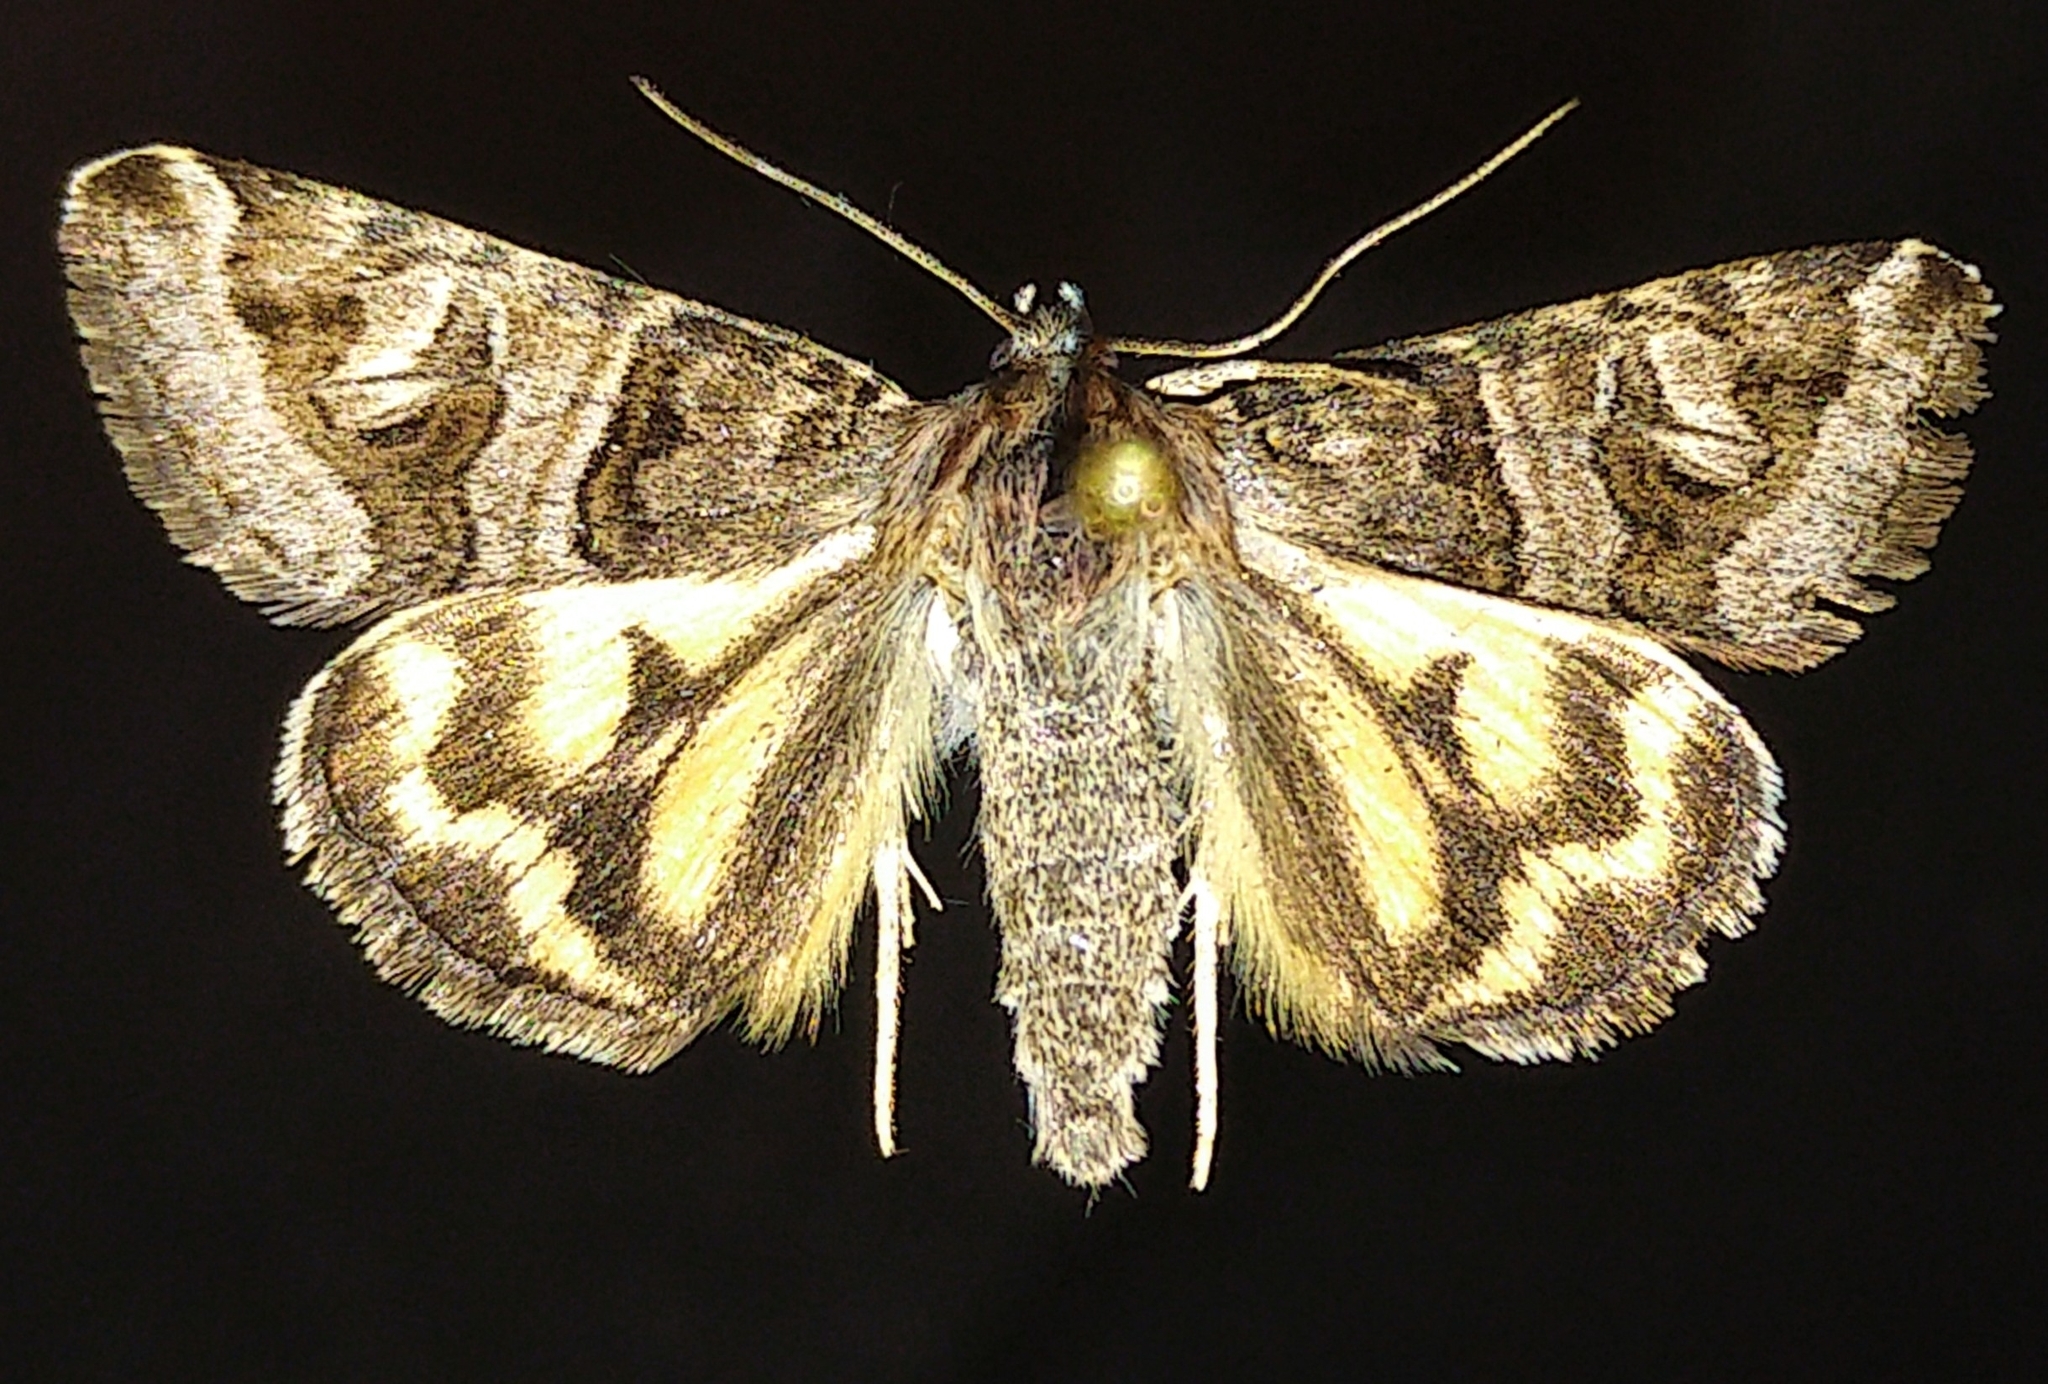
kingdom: Animalia
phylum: Arthropoda
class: Insecta
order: Lepidoptera
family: Erebidae
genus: Drasteria
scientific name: Drasteria petricola
